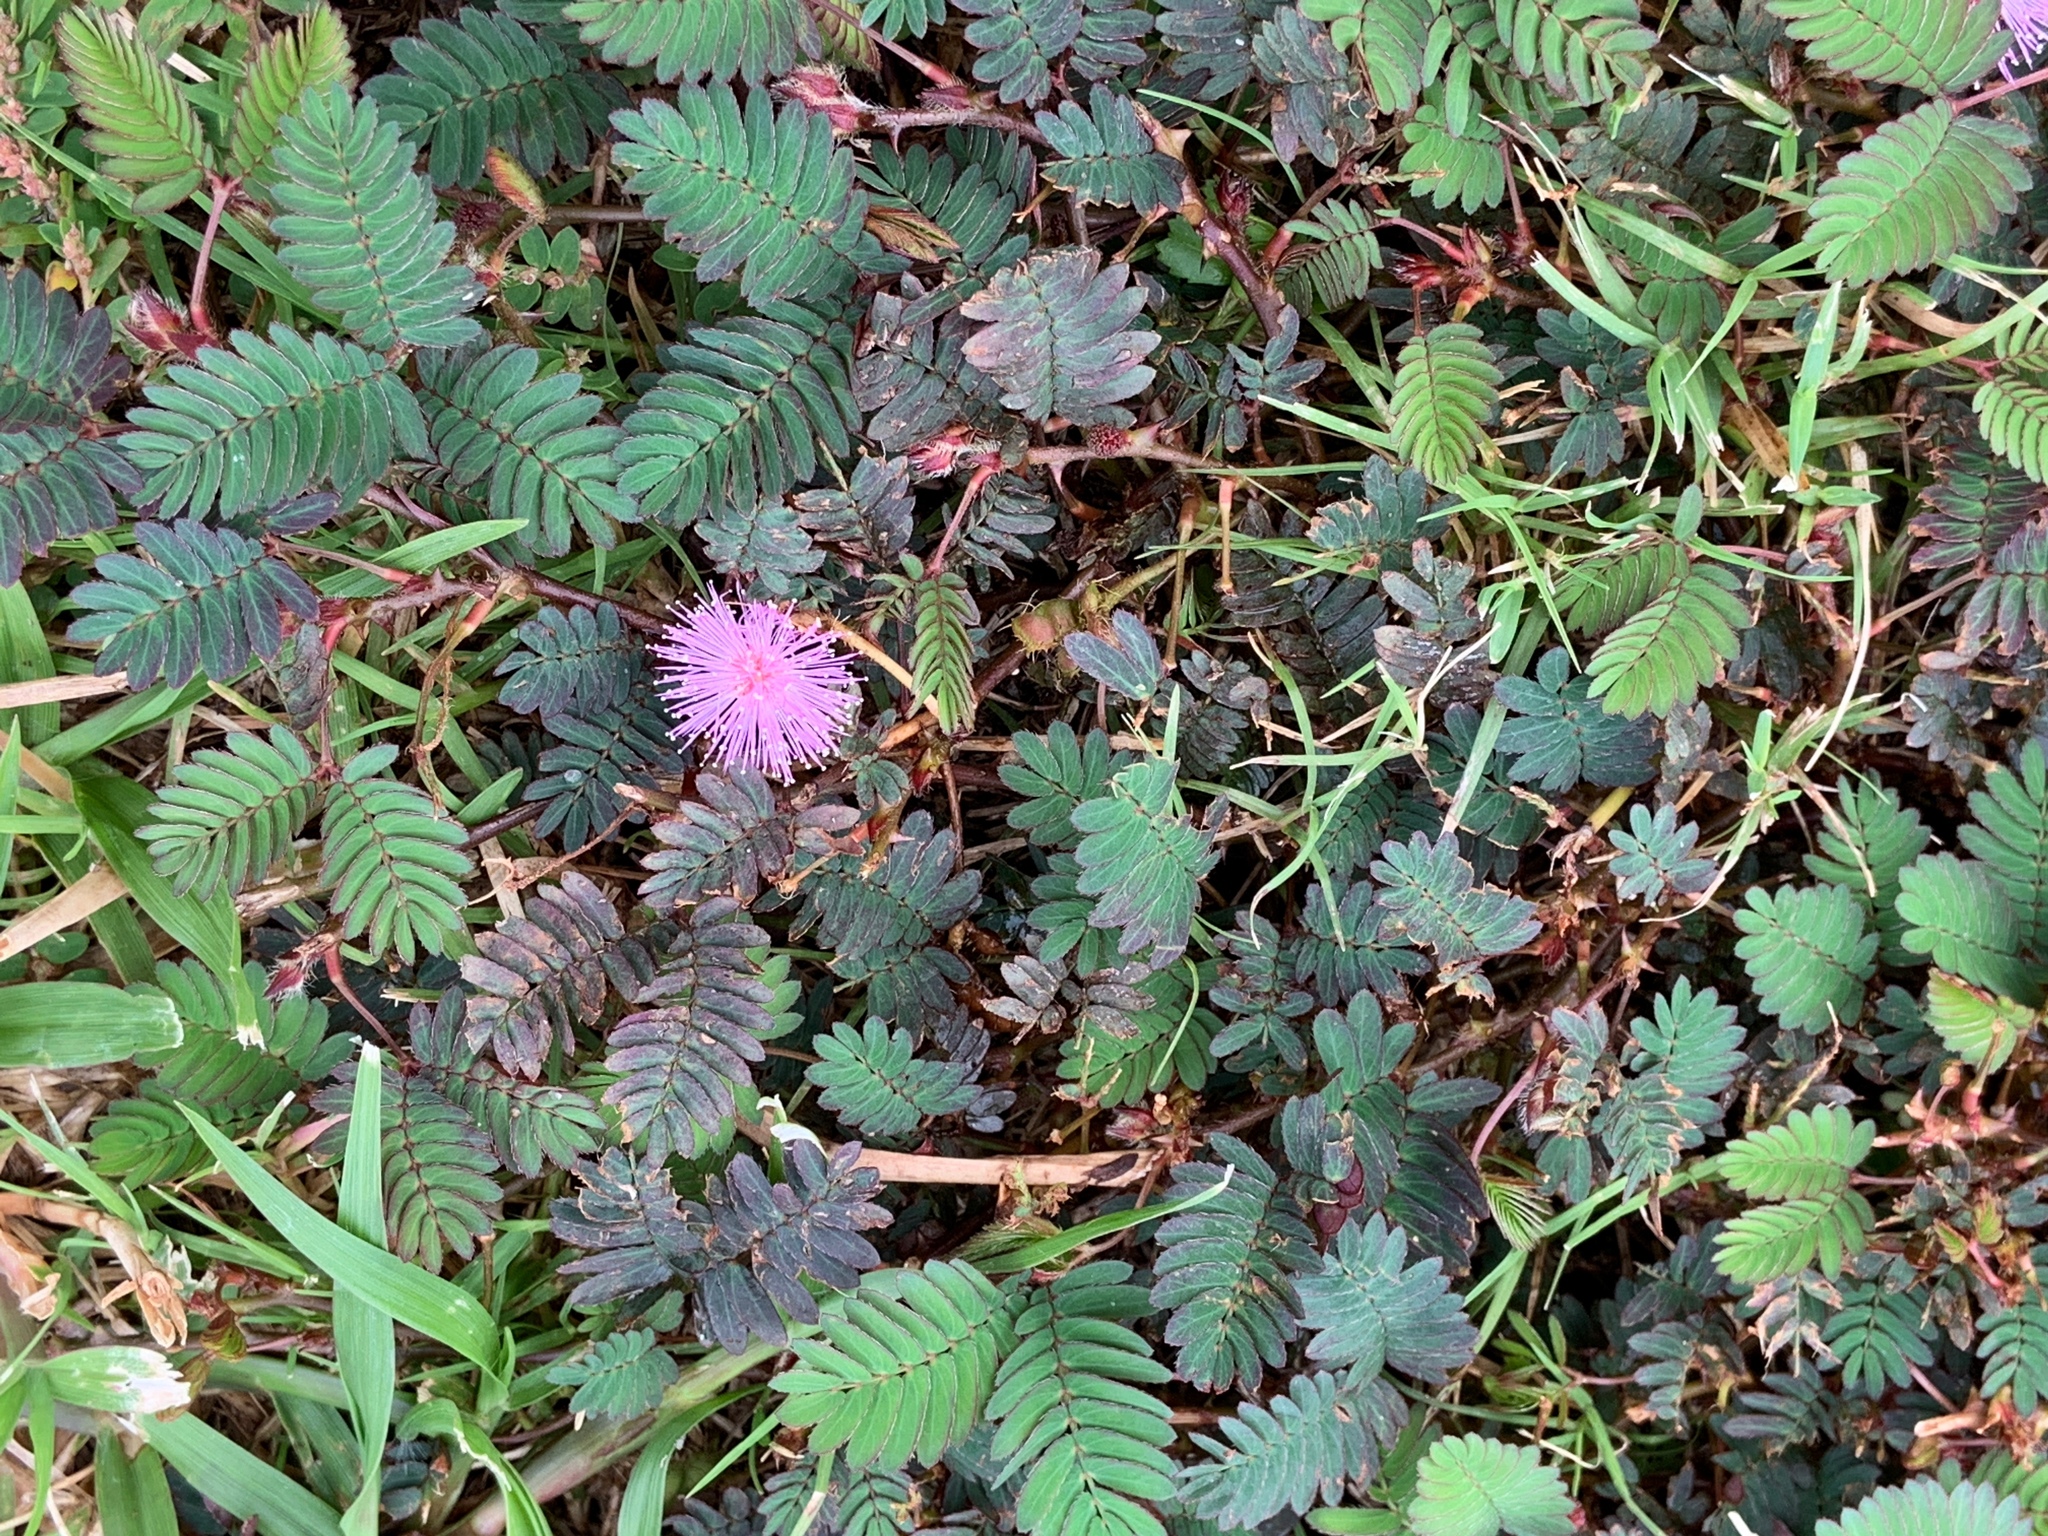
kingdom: Plantae
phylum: Tracheophyta
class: Magnoliopsida
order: Fabales
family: Fabaceae
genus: Mimosa
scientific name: Mimosa pudica
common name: Sensitive plant
